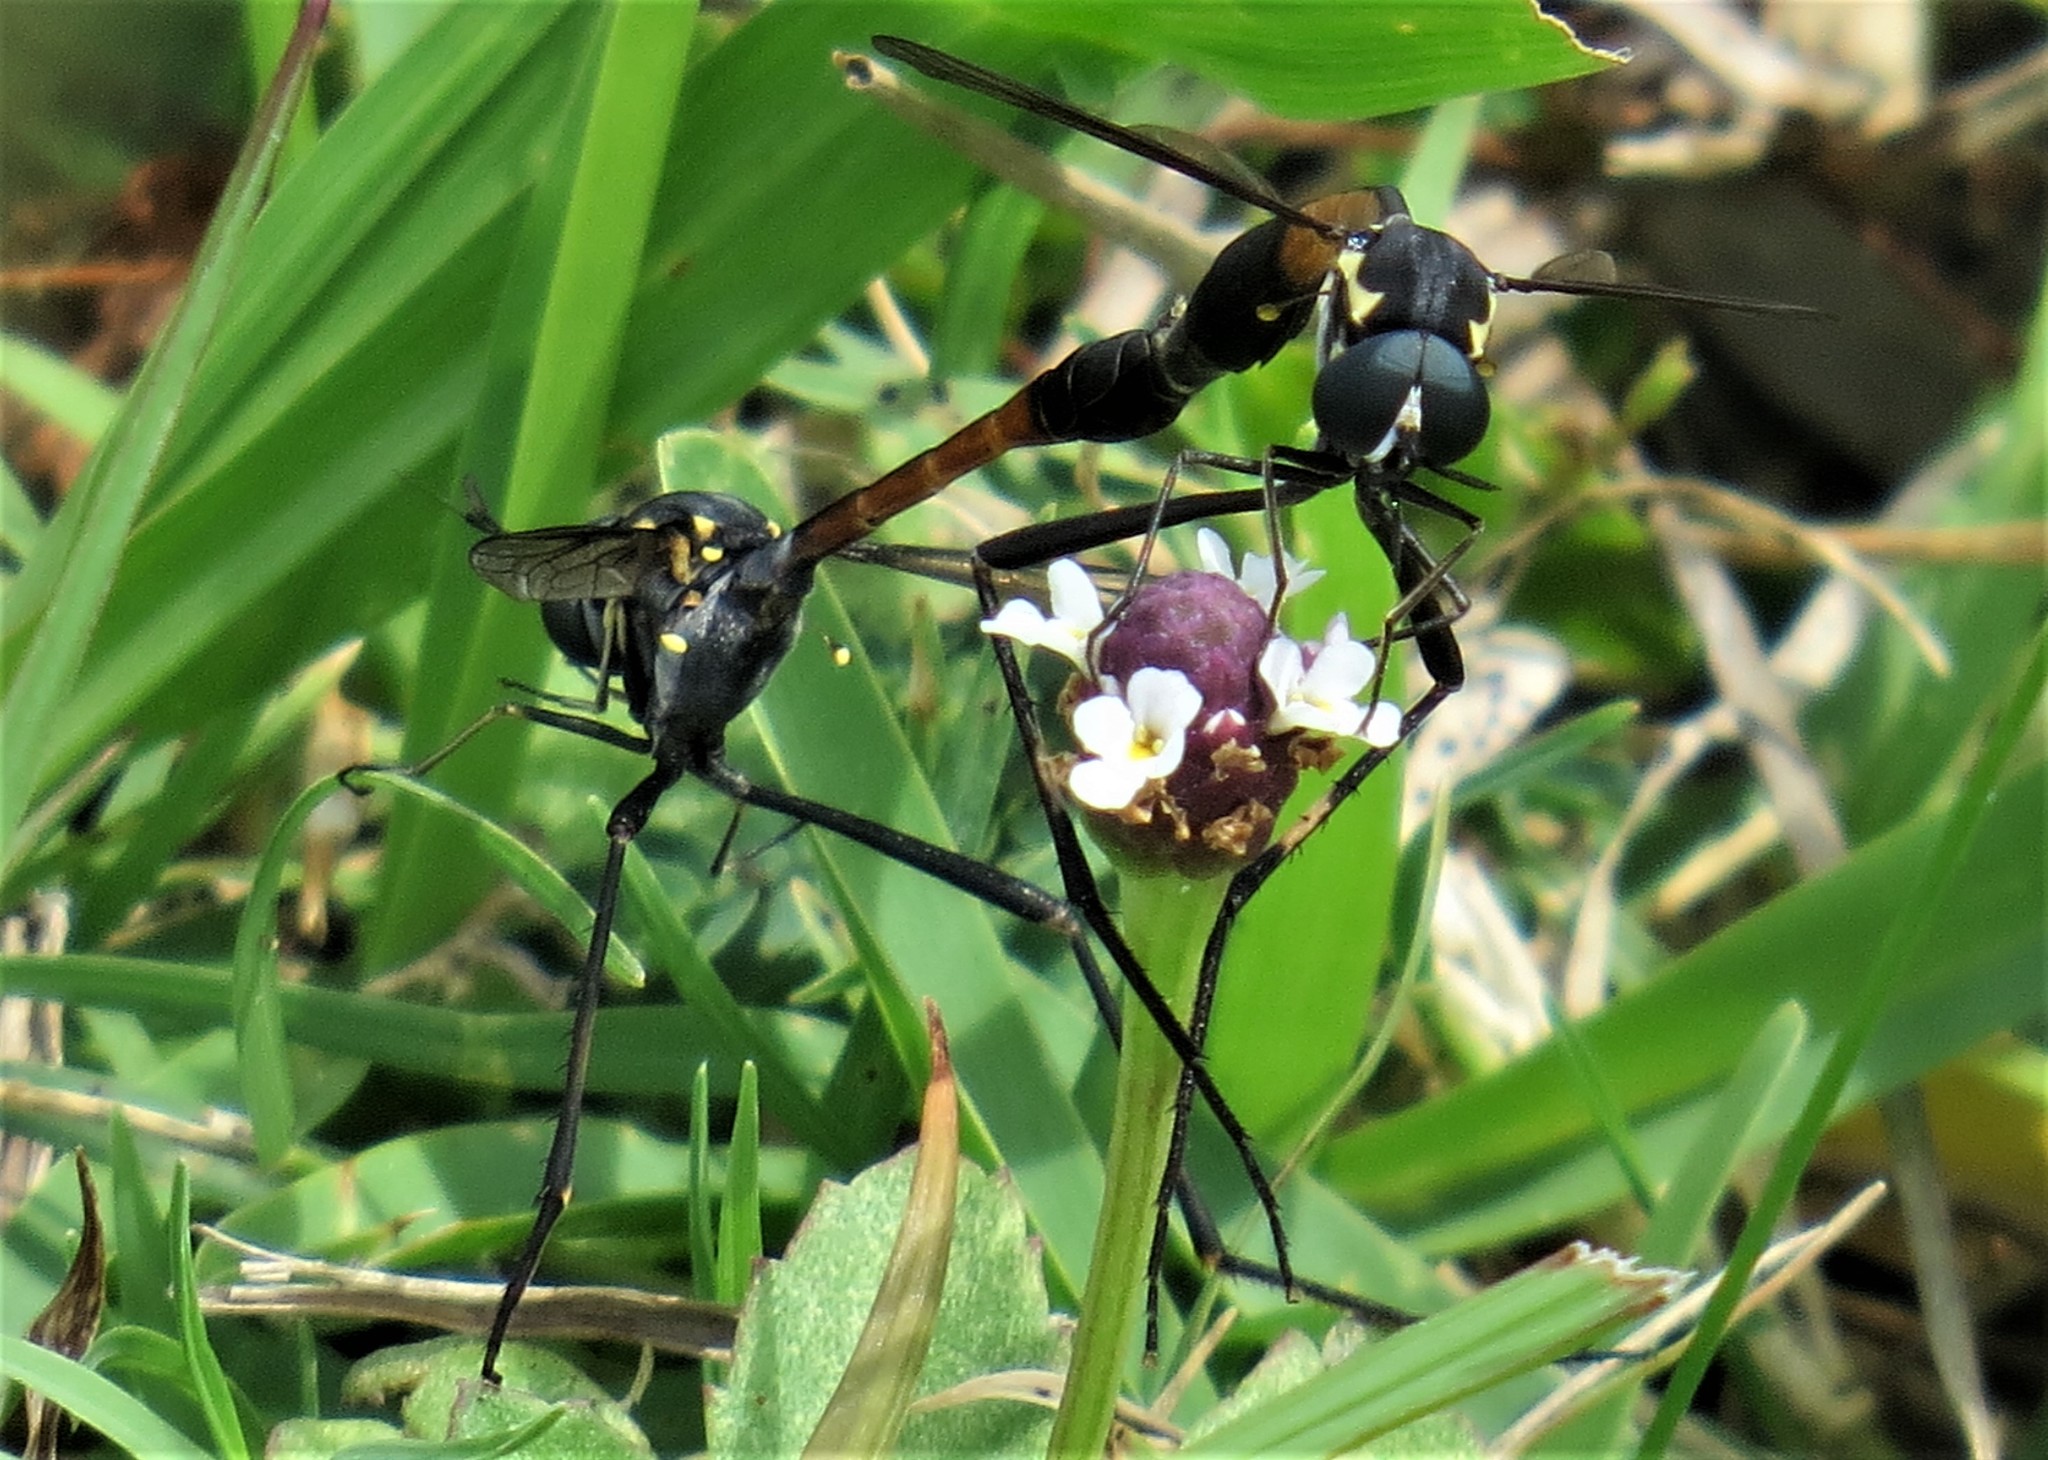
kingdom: Animalia
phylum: Arthropoda
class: Insecta
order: Diptera
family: Bombyliidae
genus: Systropus
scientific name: Systropus bicornis
